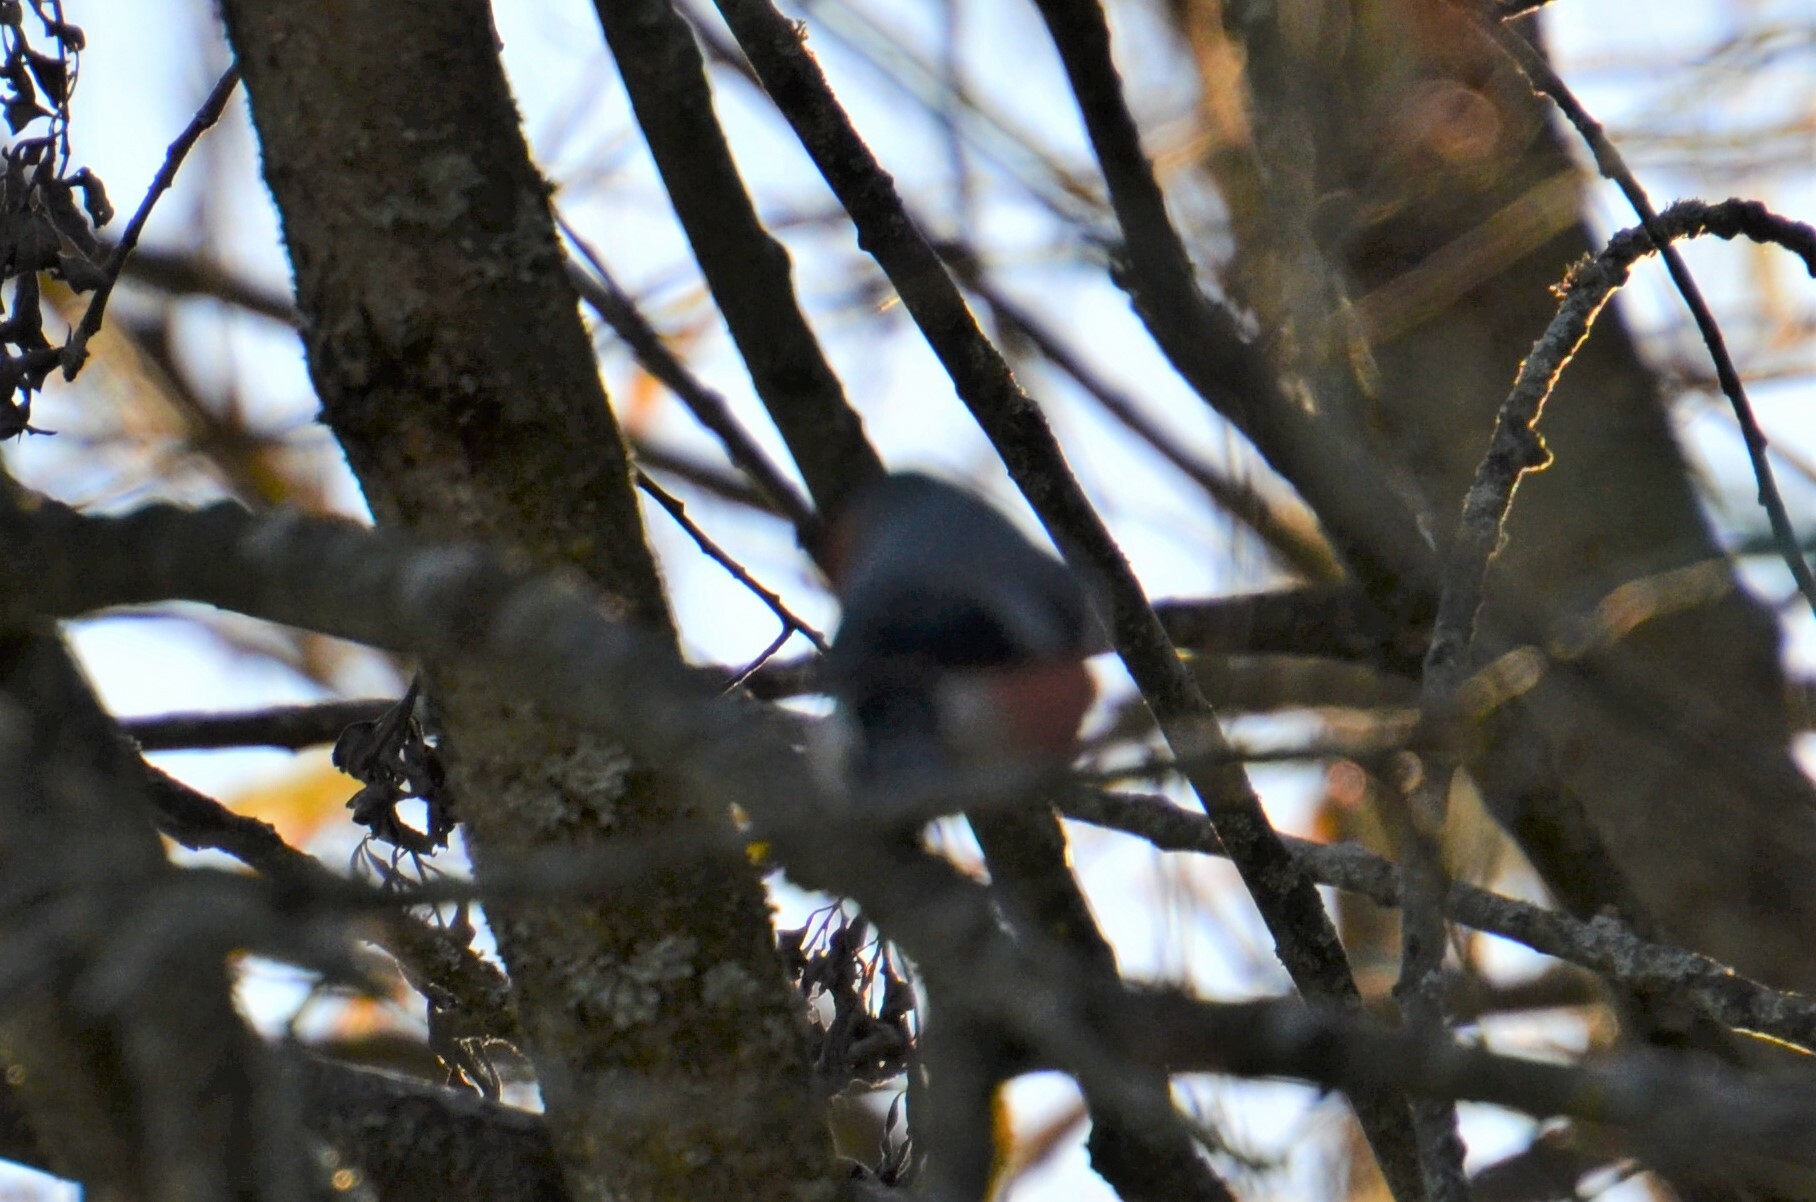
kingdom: Animalia
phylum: Chordata
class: Aves
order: Passeriformes
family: Fringillidae
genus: Pyrrhula
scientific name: Pyrrhula pyrrhula
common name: Eurasian bullfinch
